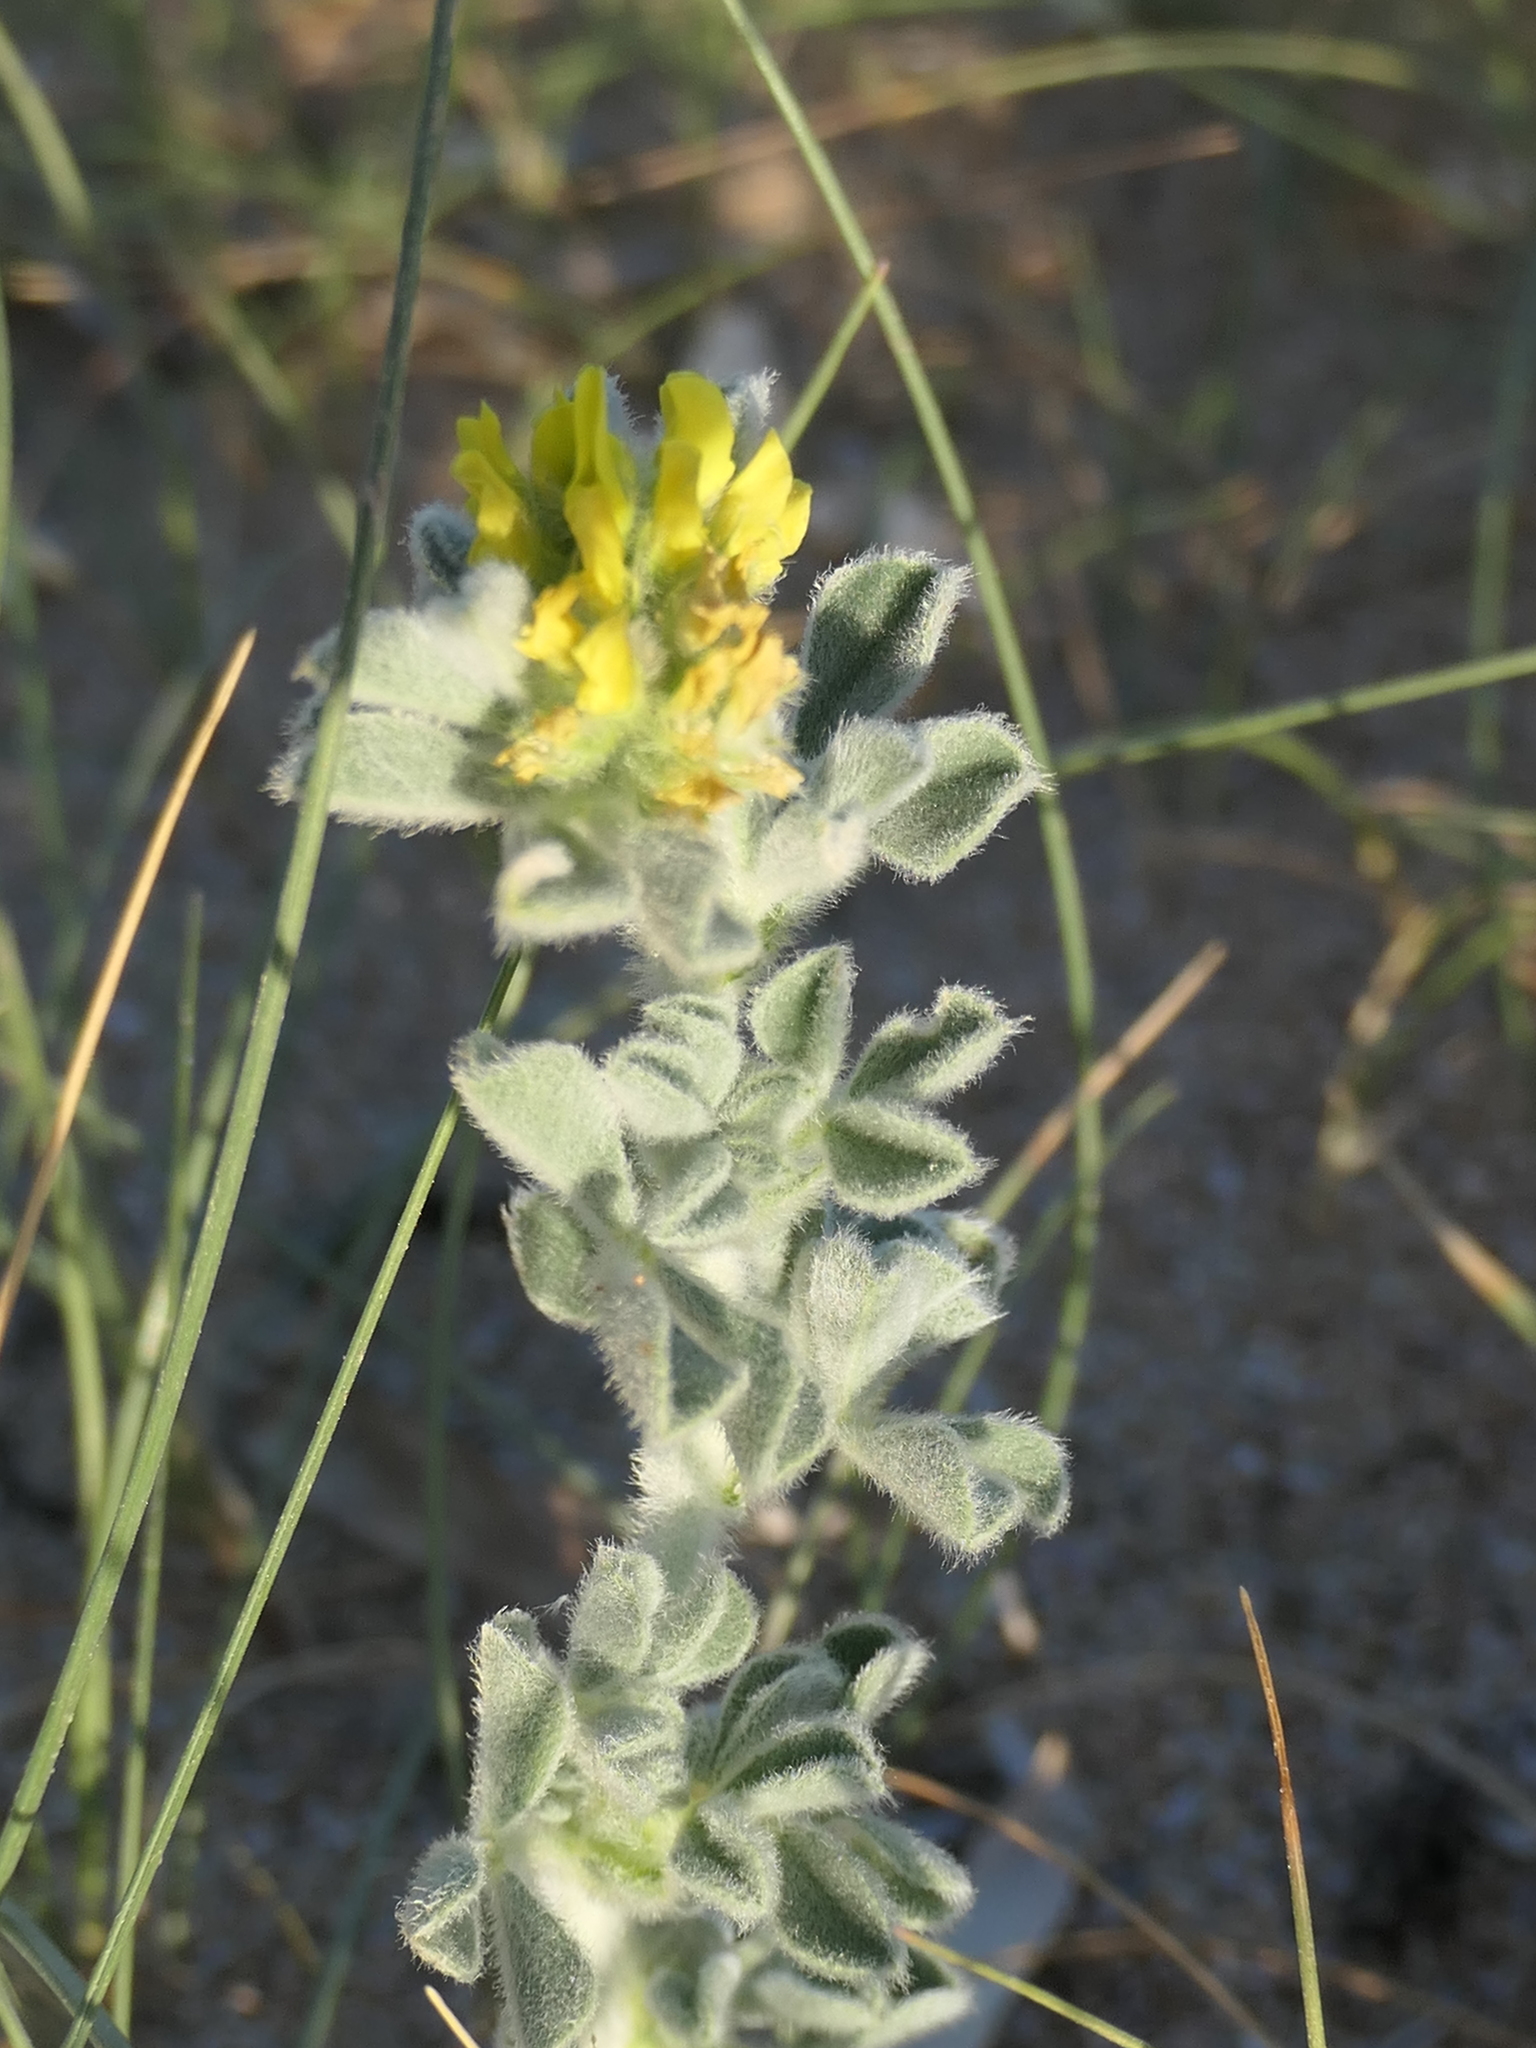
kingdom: Plantae
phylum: Tracheophyta
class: Magnoliopsida
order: Fabales
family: Fabaceae
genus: Medicago
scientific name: Medicago marina
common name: Sea medick
